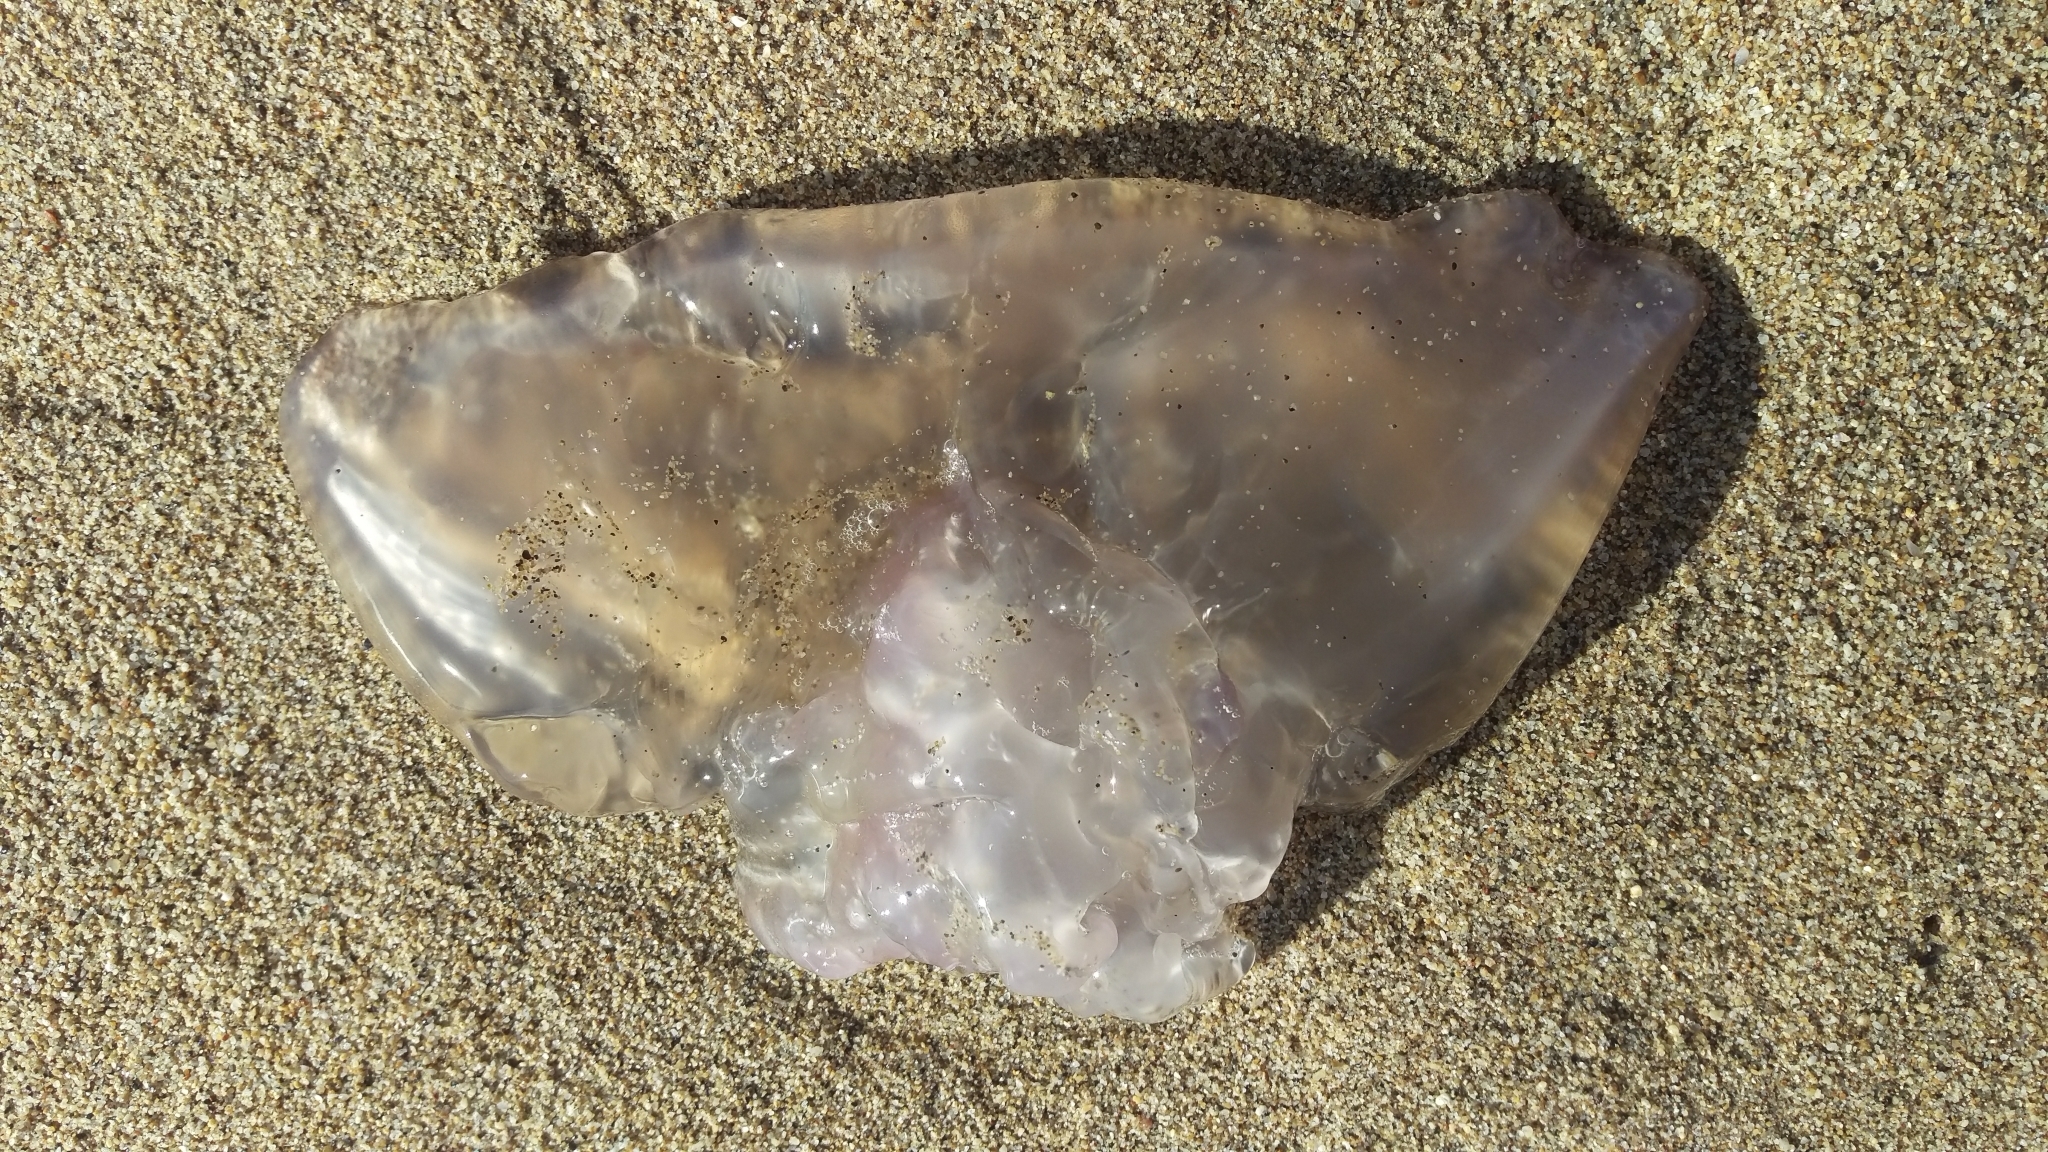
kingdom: Animalia
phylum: Cnidaria
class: Scyphozoa
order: Semaeostomeae
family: Ulmaridae
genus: Aurelia
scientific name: Aurelia labiata
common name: Pacific moon jelly
